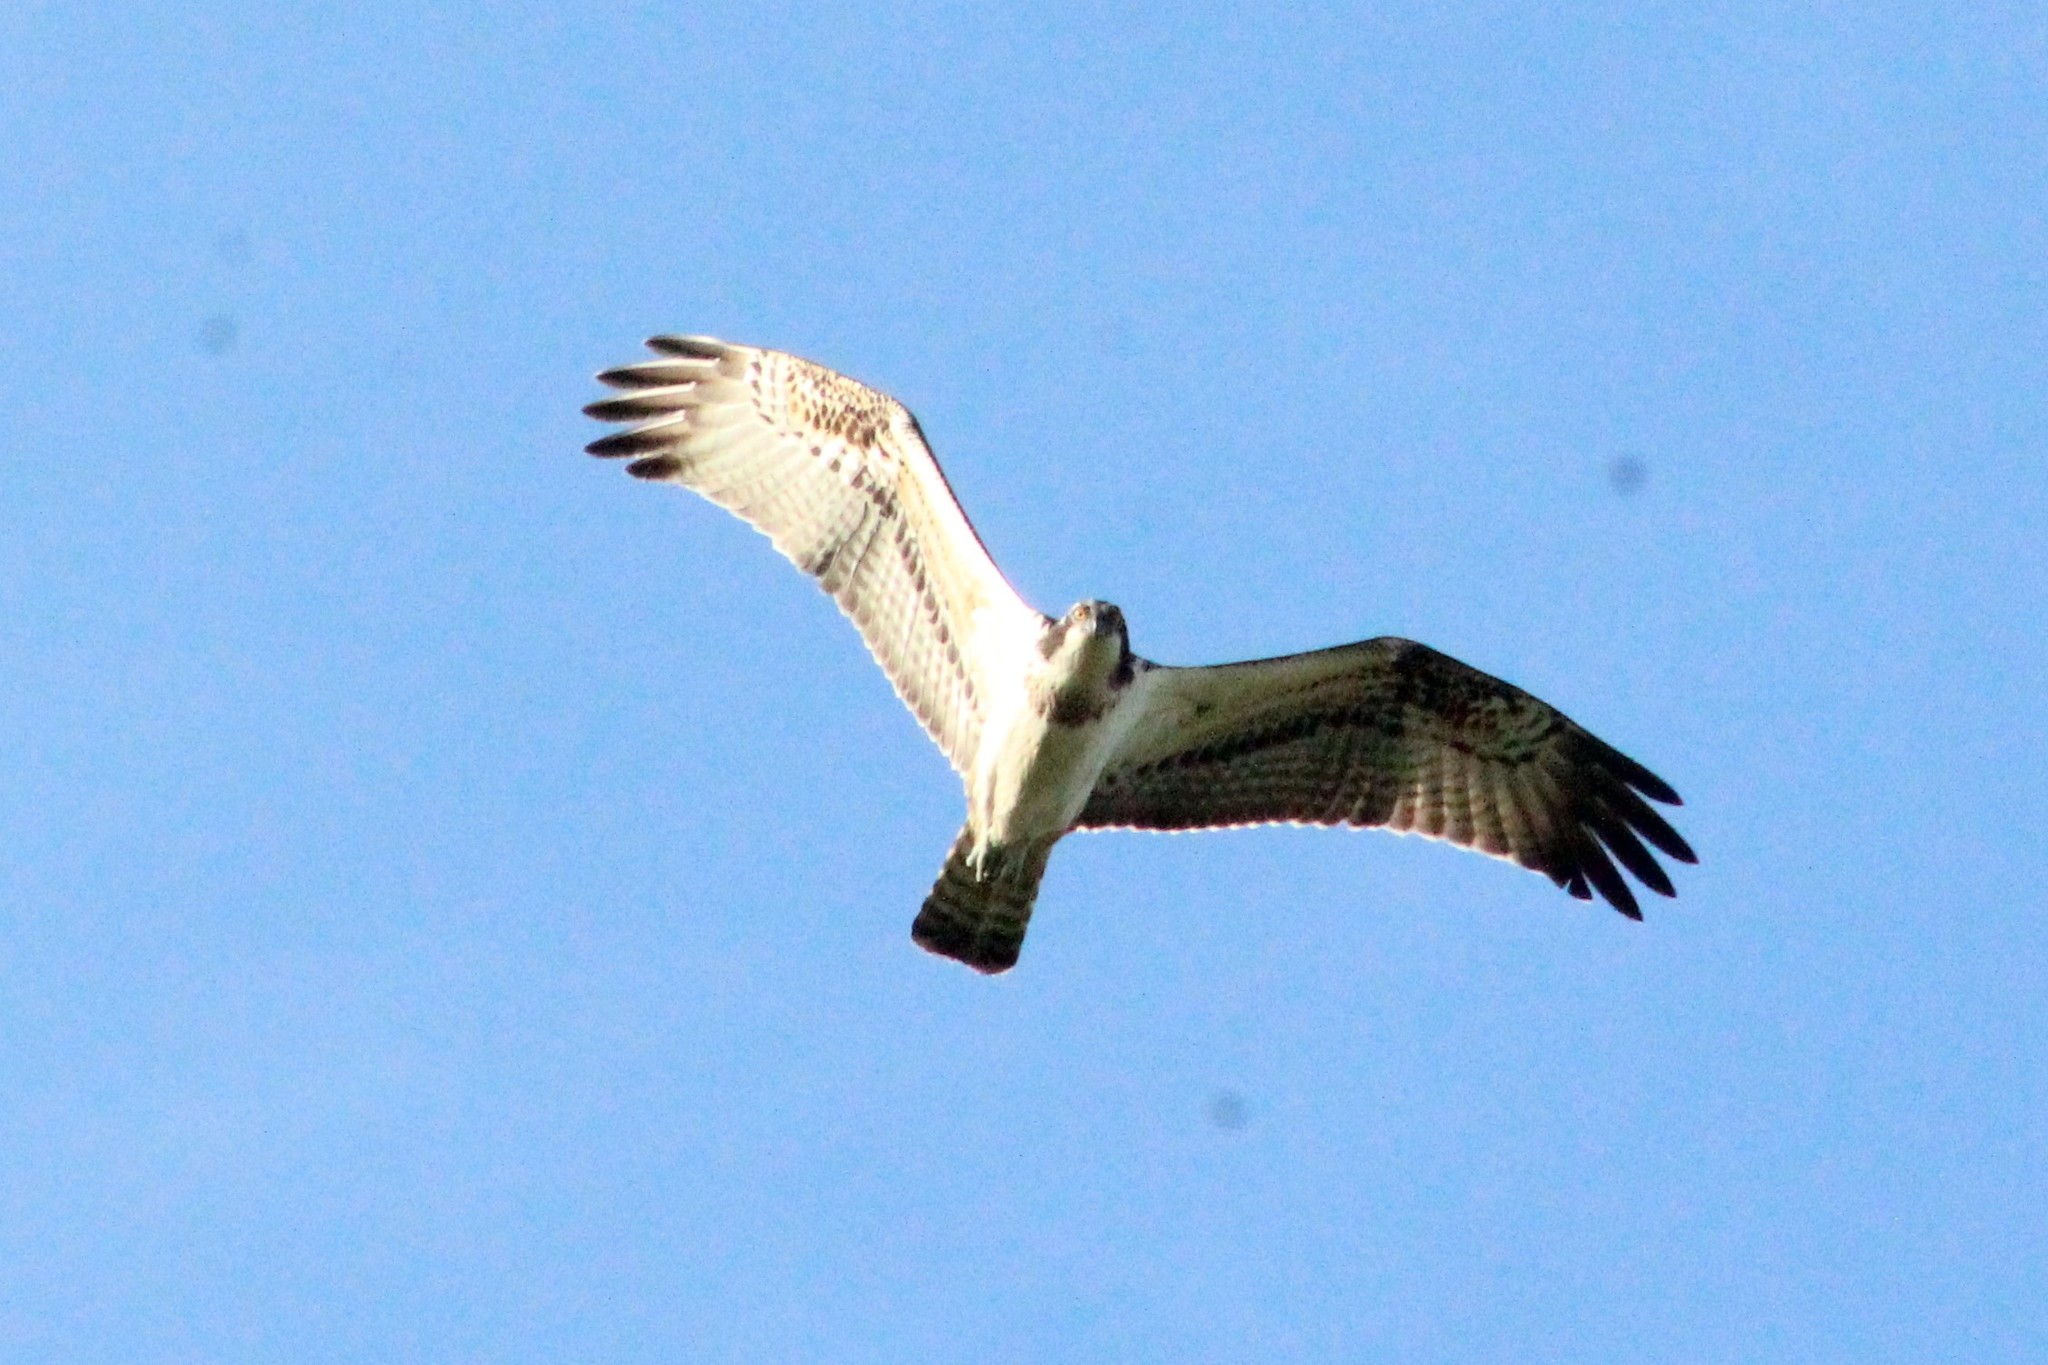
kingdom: Animalia
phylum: Chordata
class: Aves
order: Accipitriformes
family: Pandionidae
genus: Pandion
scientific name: Pandion haliaetus
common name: Osprey
